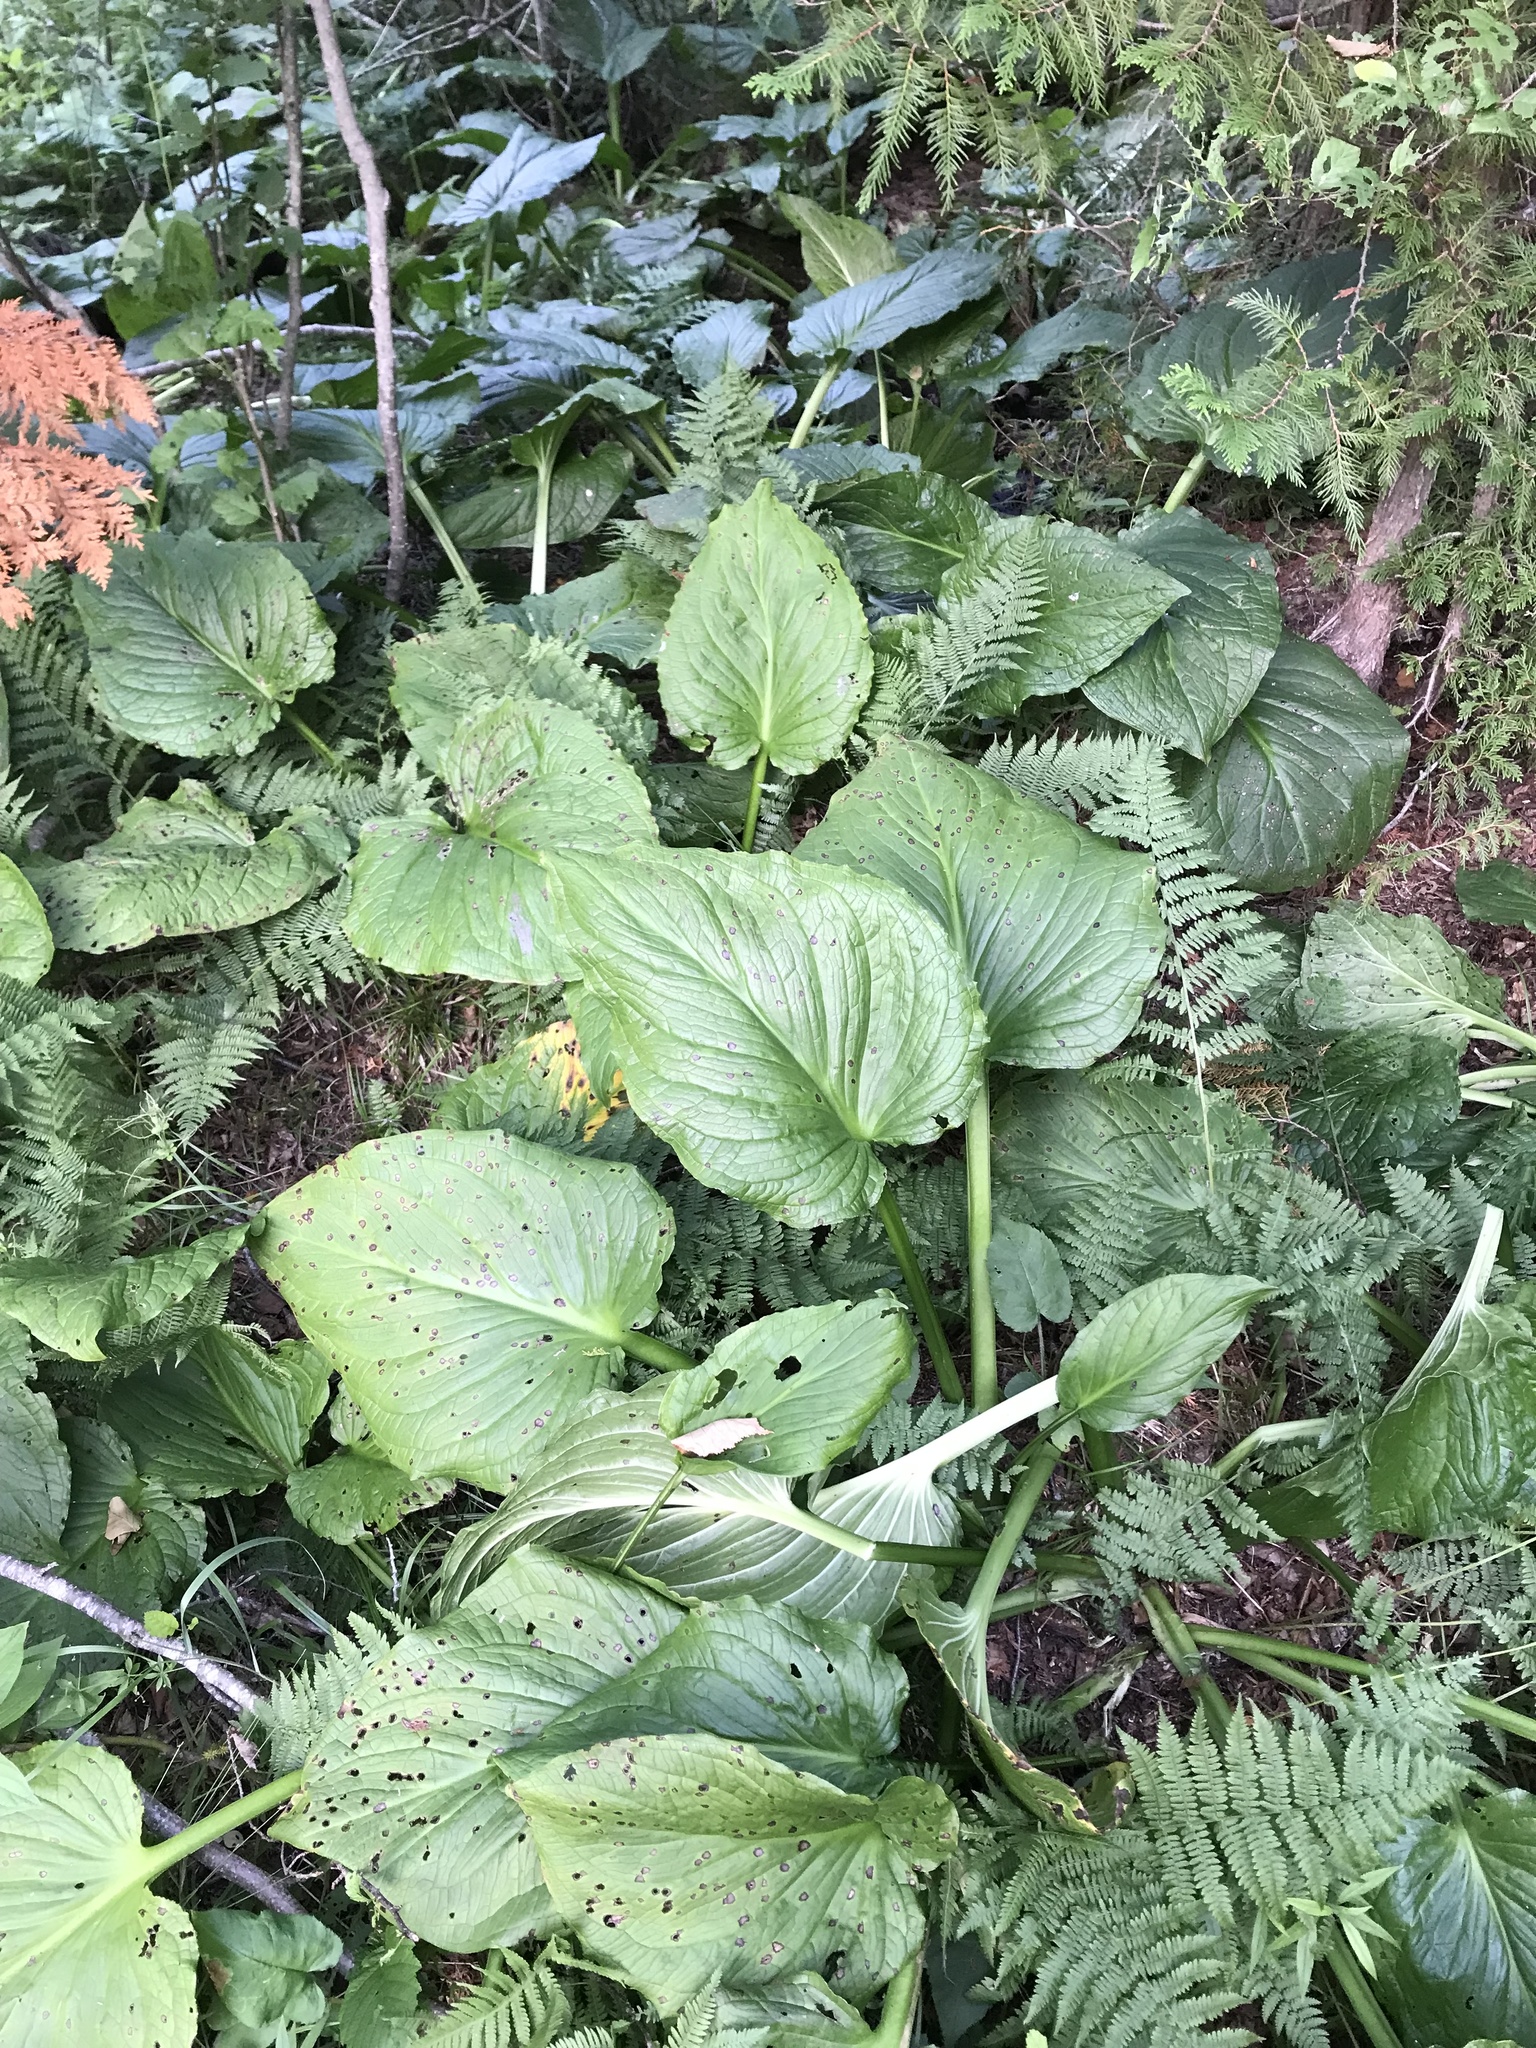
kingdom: Plantae
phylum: Tracheophyta
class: Liliopsida
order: Alismatales
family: Araceae
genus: Symplocarpus
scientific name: Symplocarpus foetidus
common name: Eastern skunk cabbage
